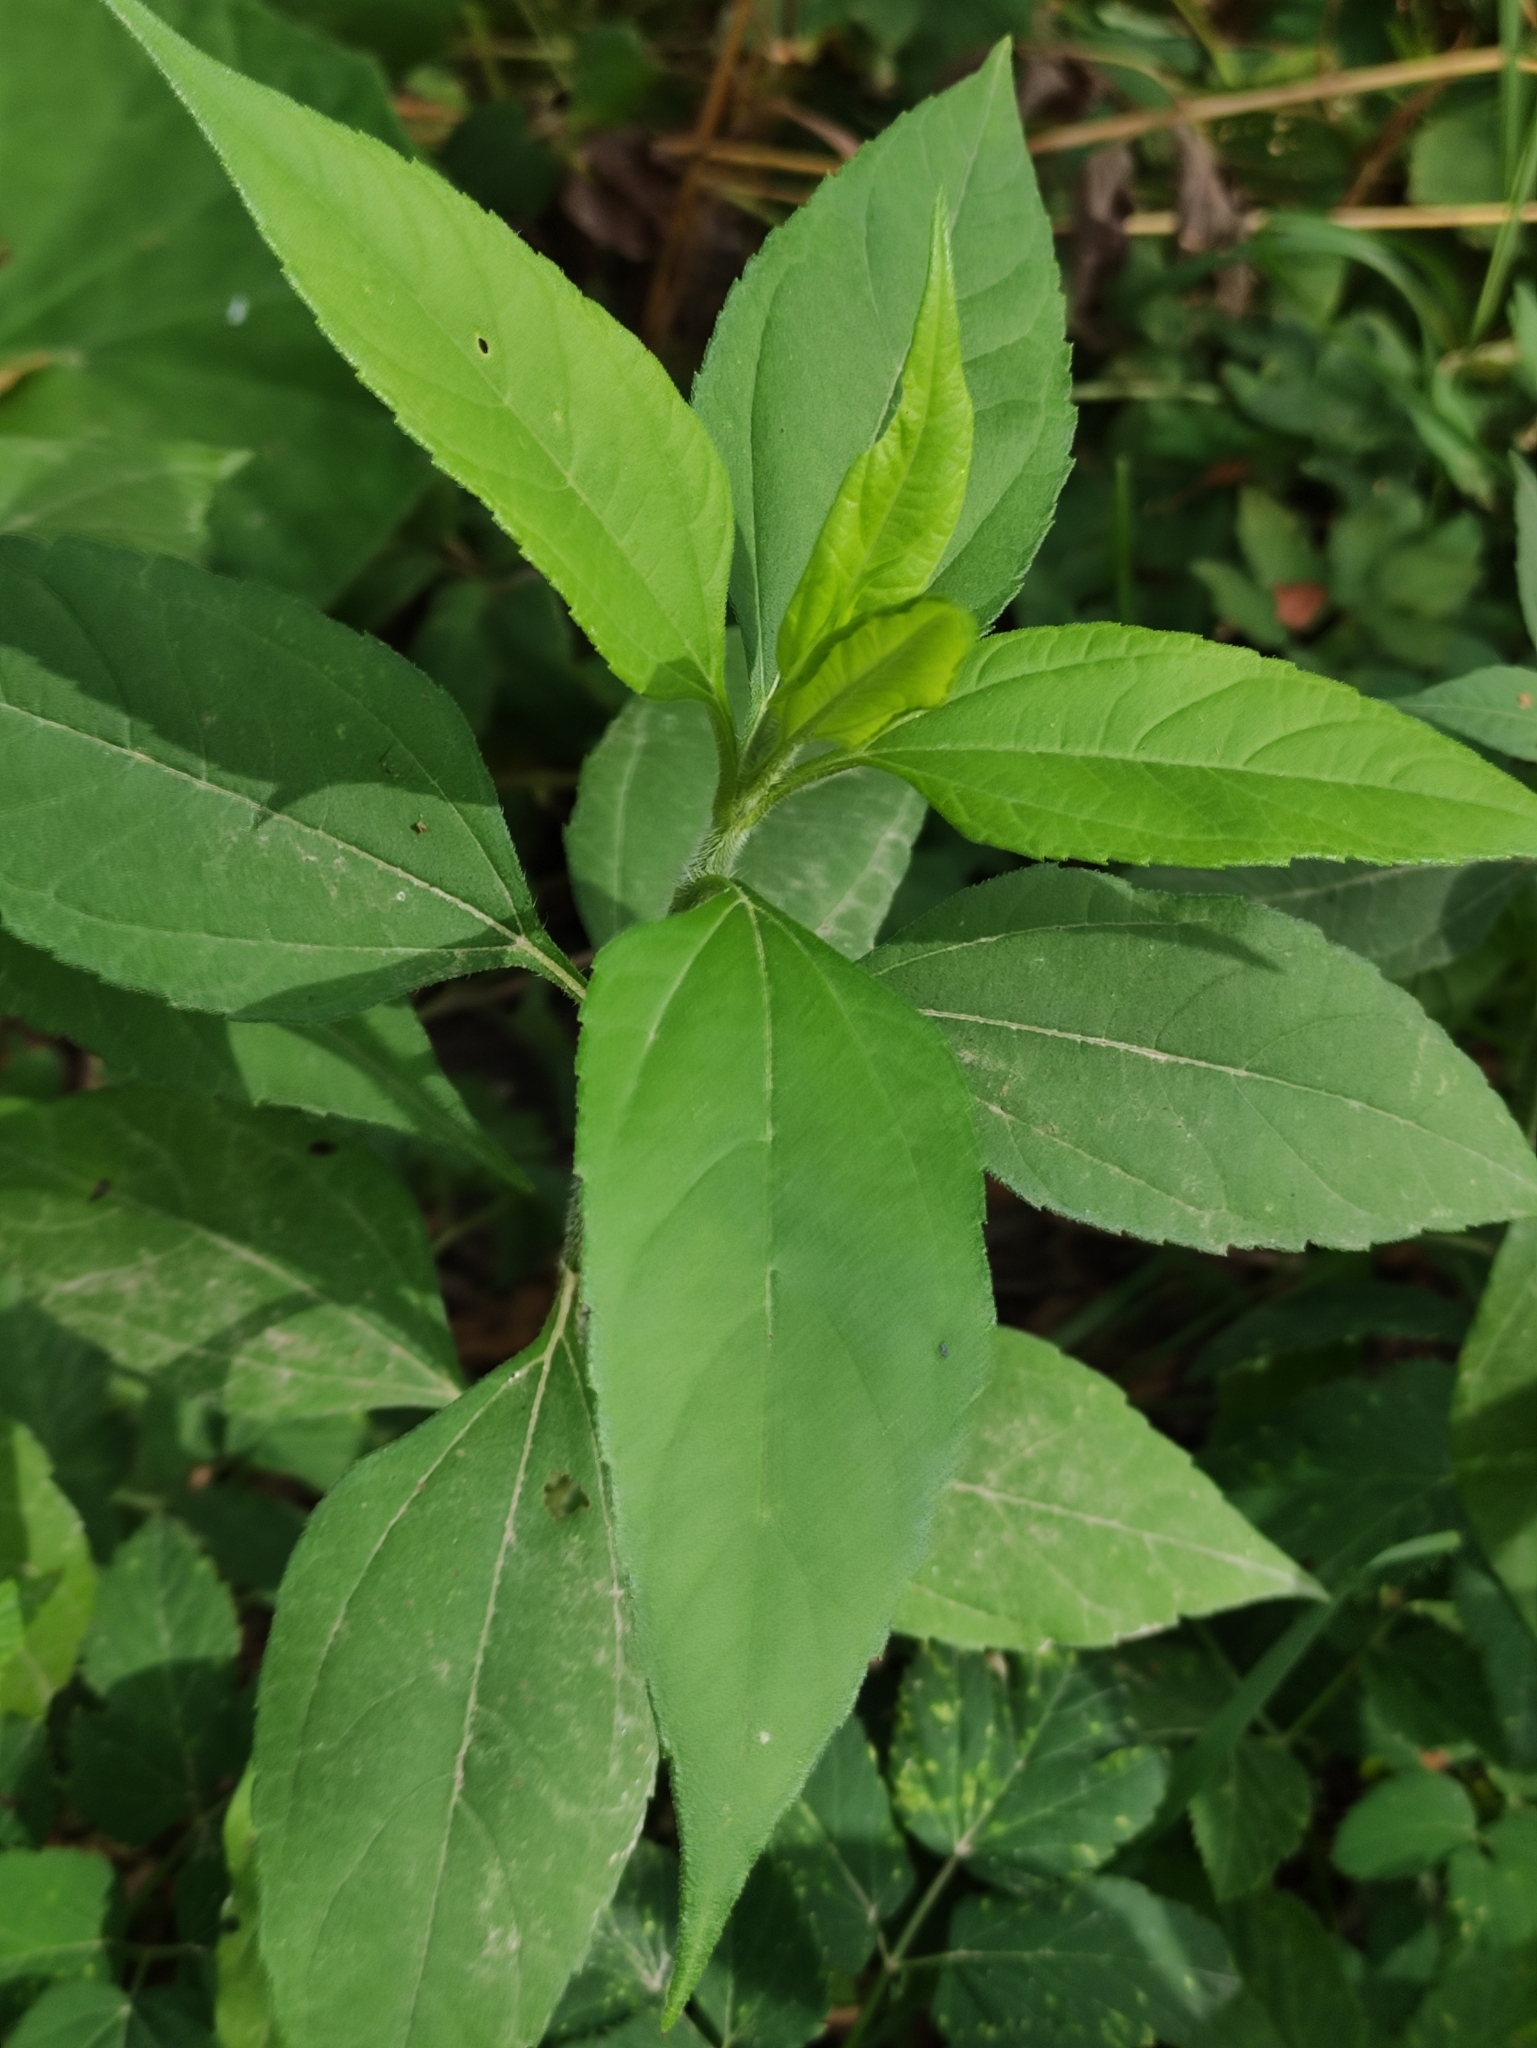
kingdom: Plantae
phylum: Tracheophyta
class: Magnoliopsida
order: Asterales
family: Asteraceae
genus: Helianthus
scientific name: Helianthus tuberosus
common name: Jerusalem artichoke
